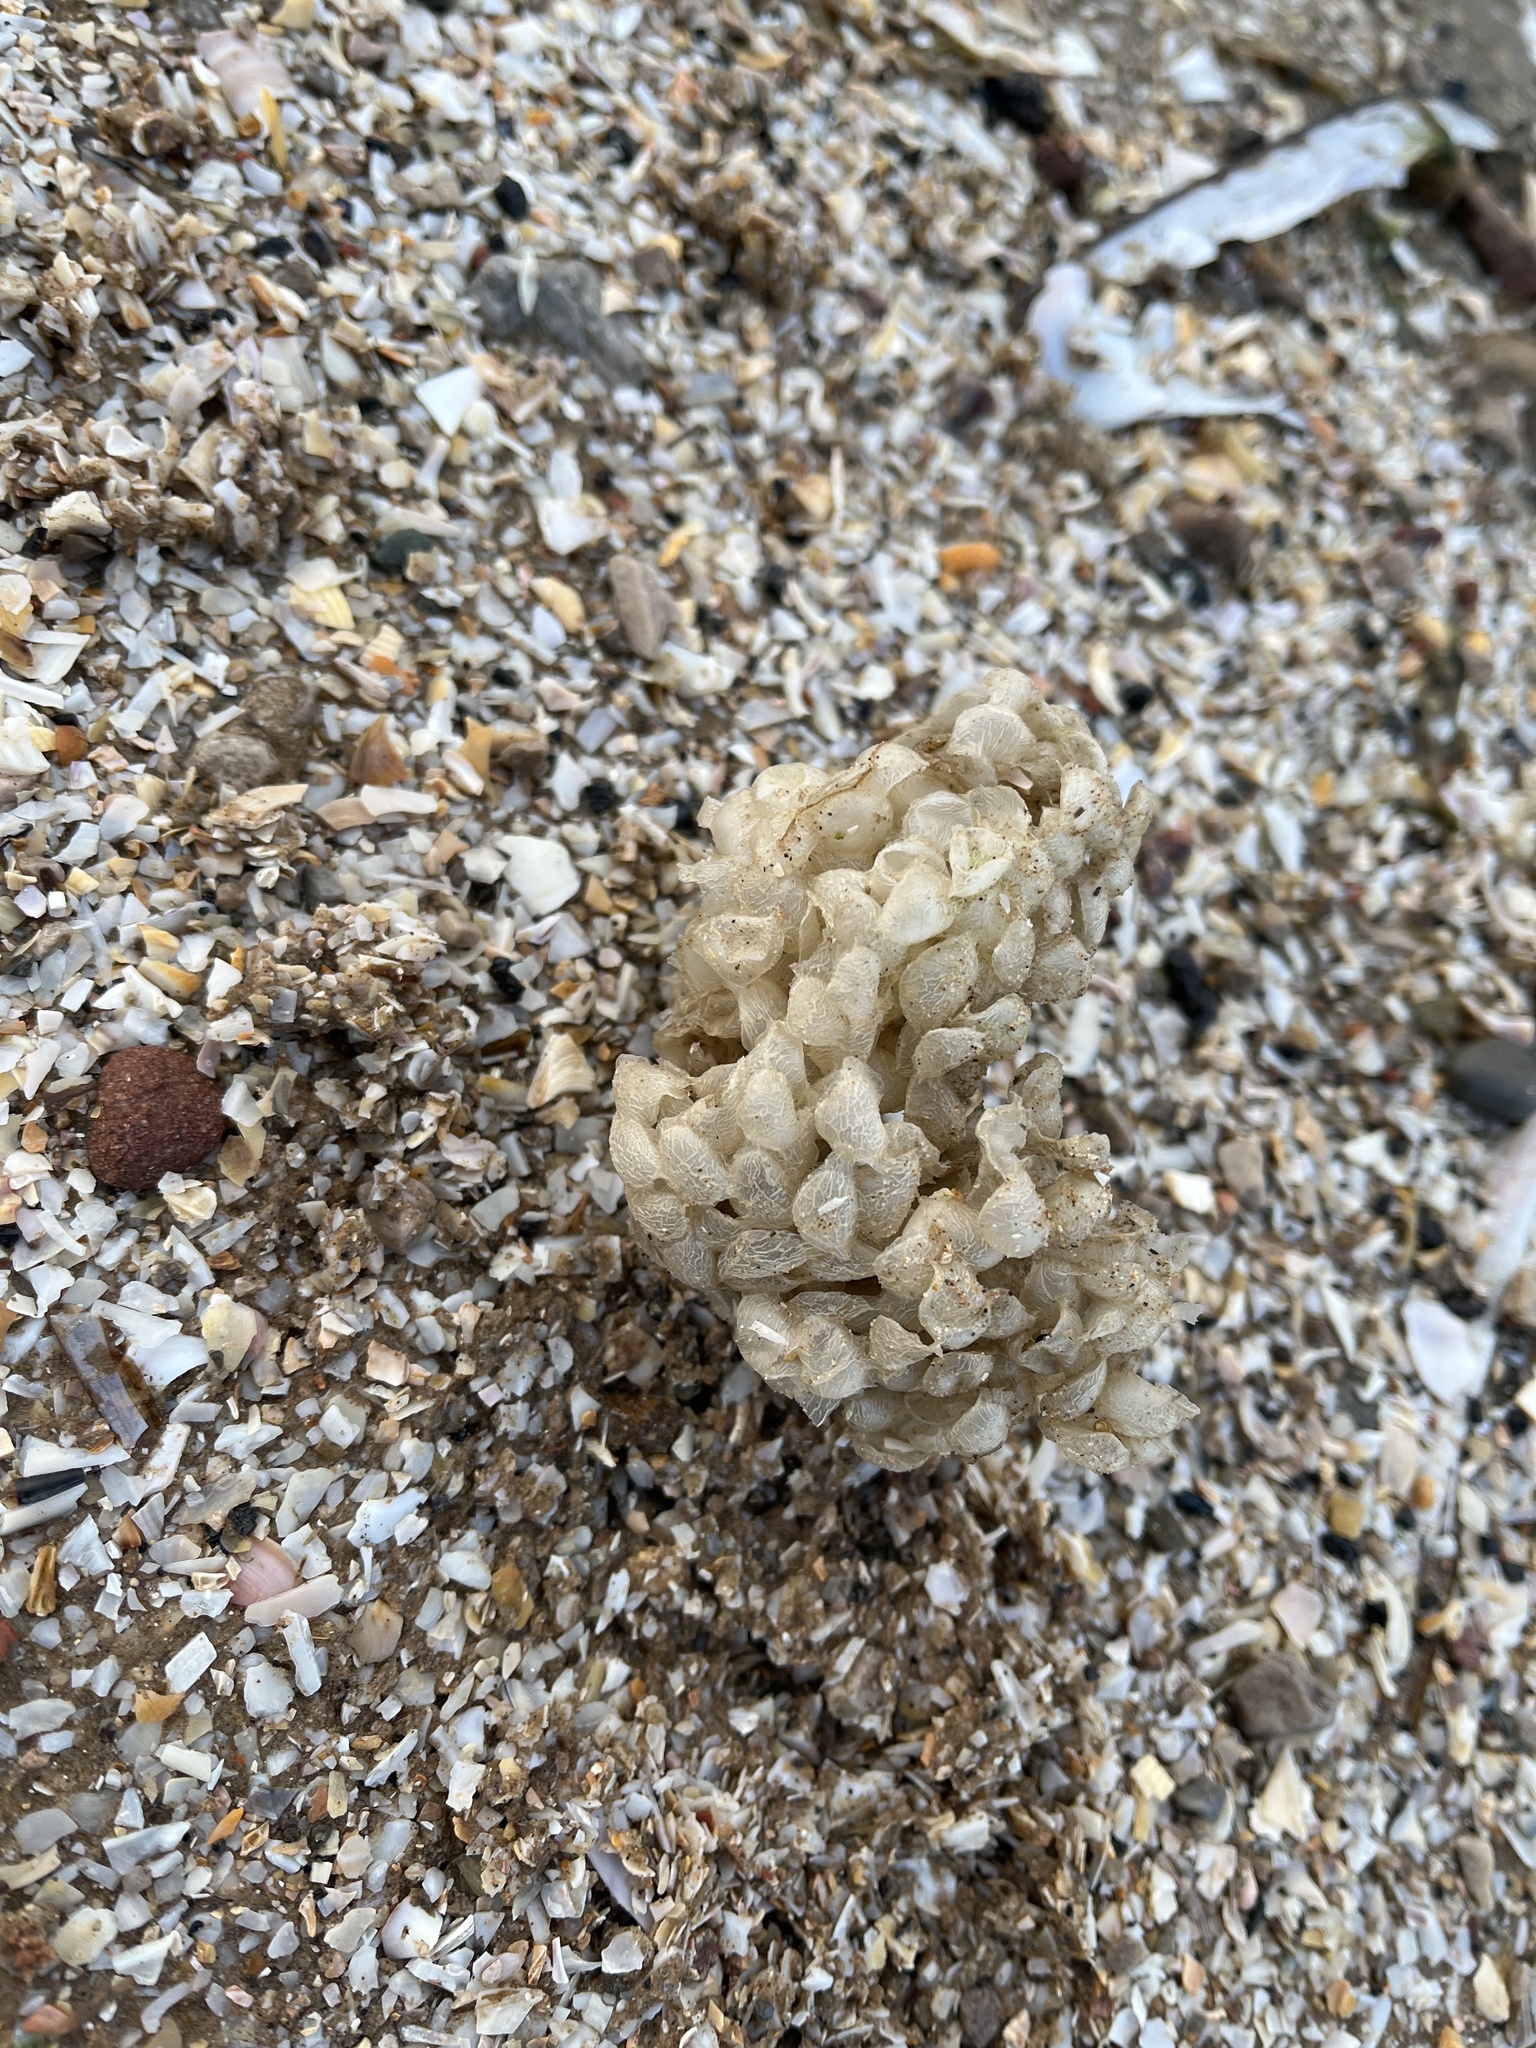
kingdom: Animalia
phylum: Mollusca
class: Gastropoda
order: Neogastropoda
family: Buccinidae
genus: Buccinum
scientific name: Buccinum undatum
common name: Common whelk
